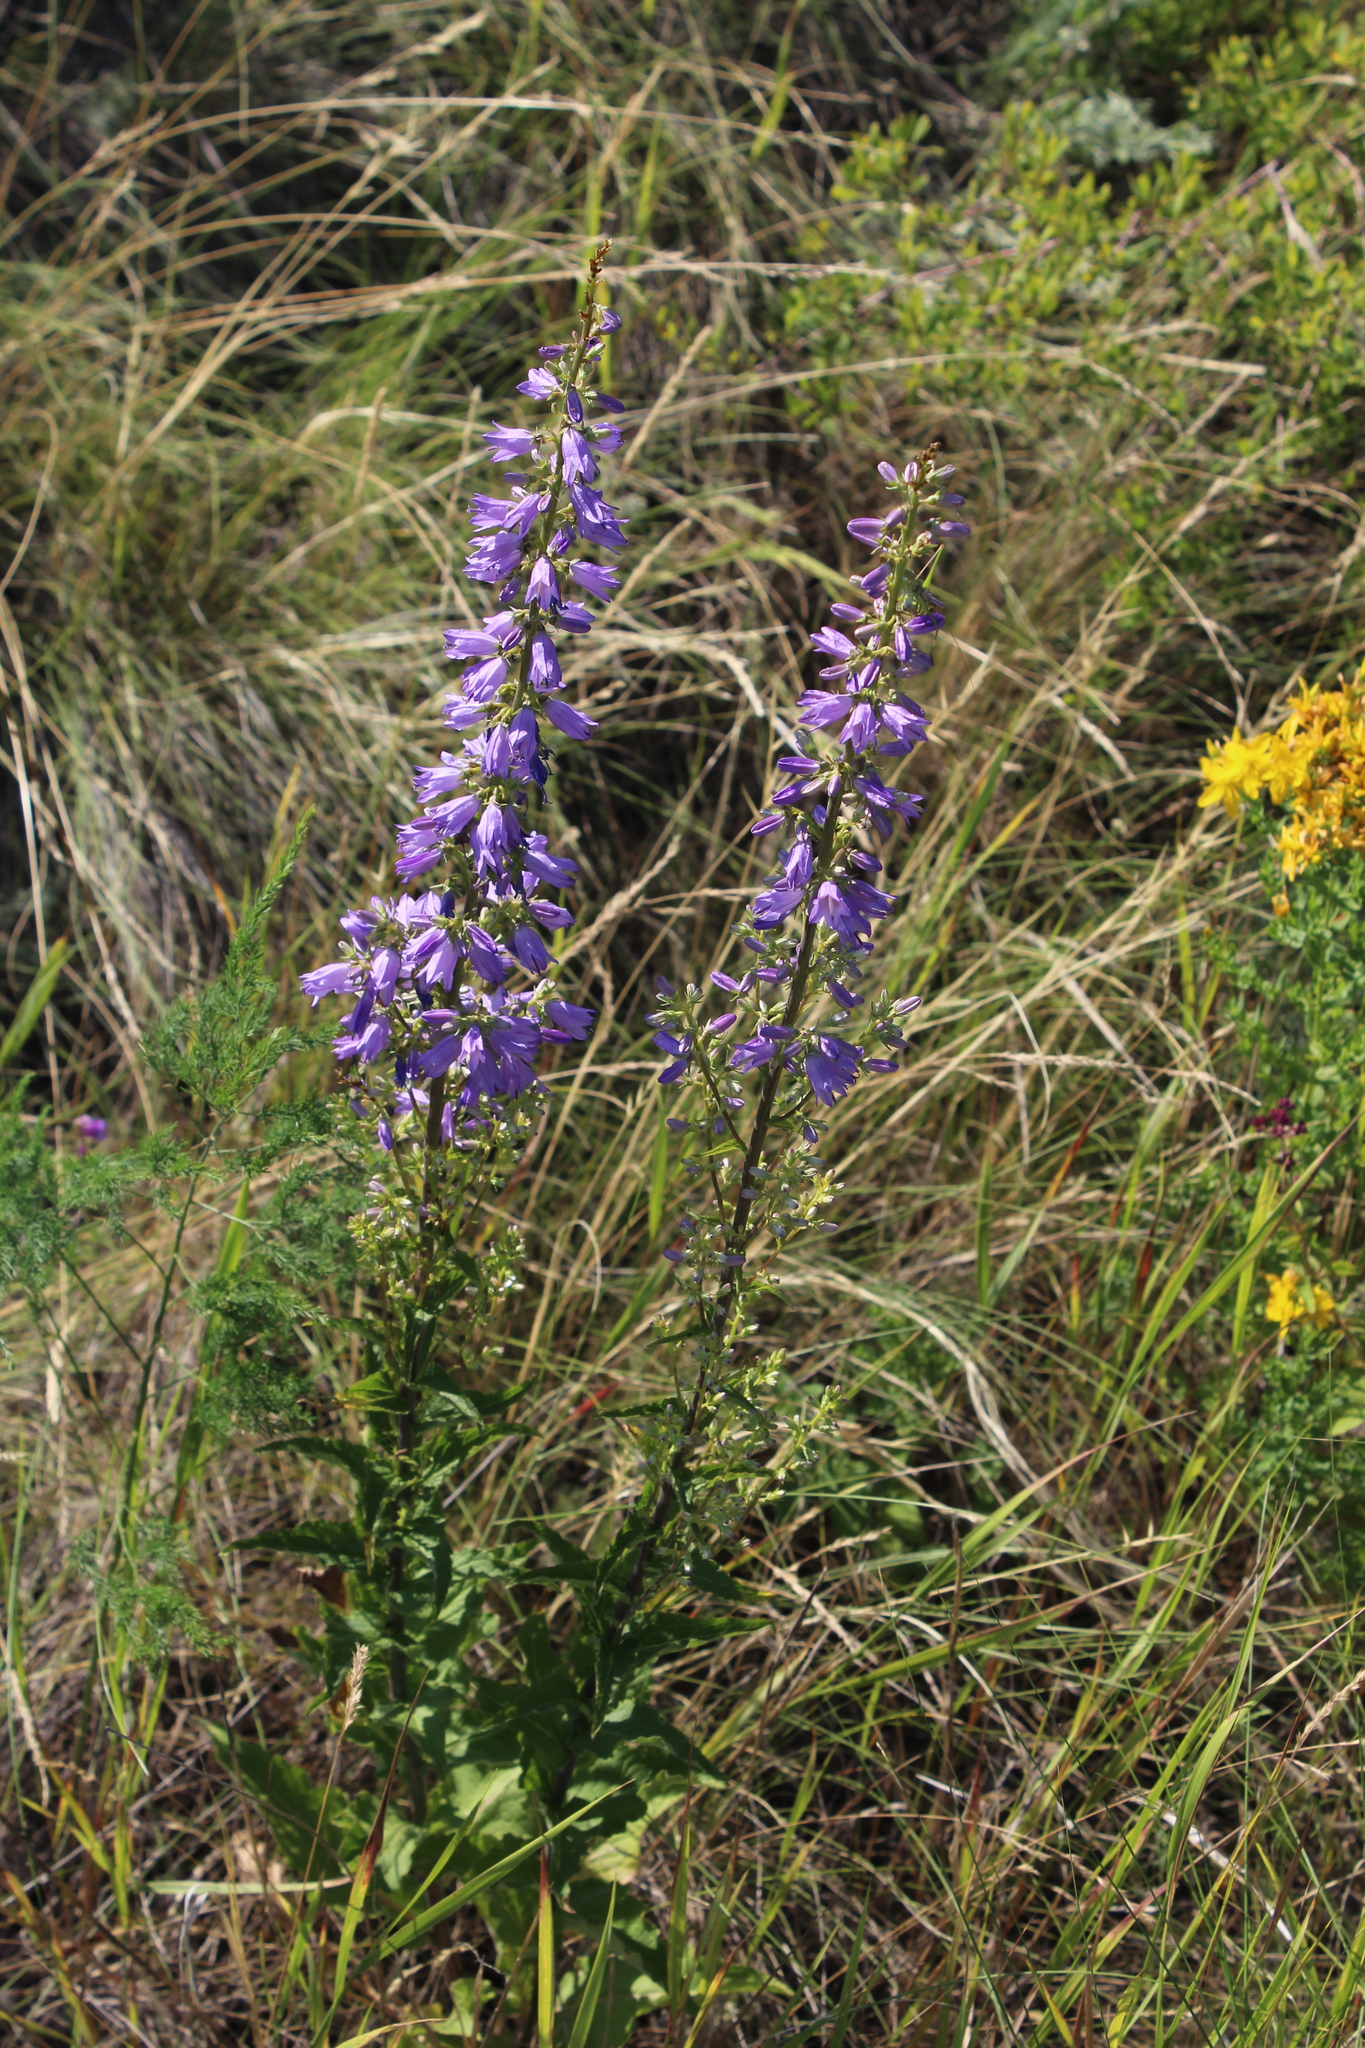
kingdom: Plantae
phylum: Tracheophyta
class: Magnoliopsida
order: Asterales
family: Campanulaceae
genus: Campanula
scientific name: Campanula bononiensis
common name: Pale bellflower
